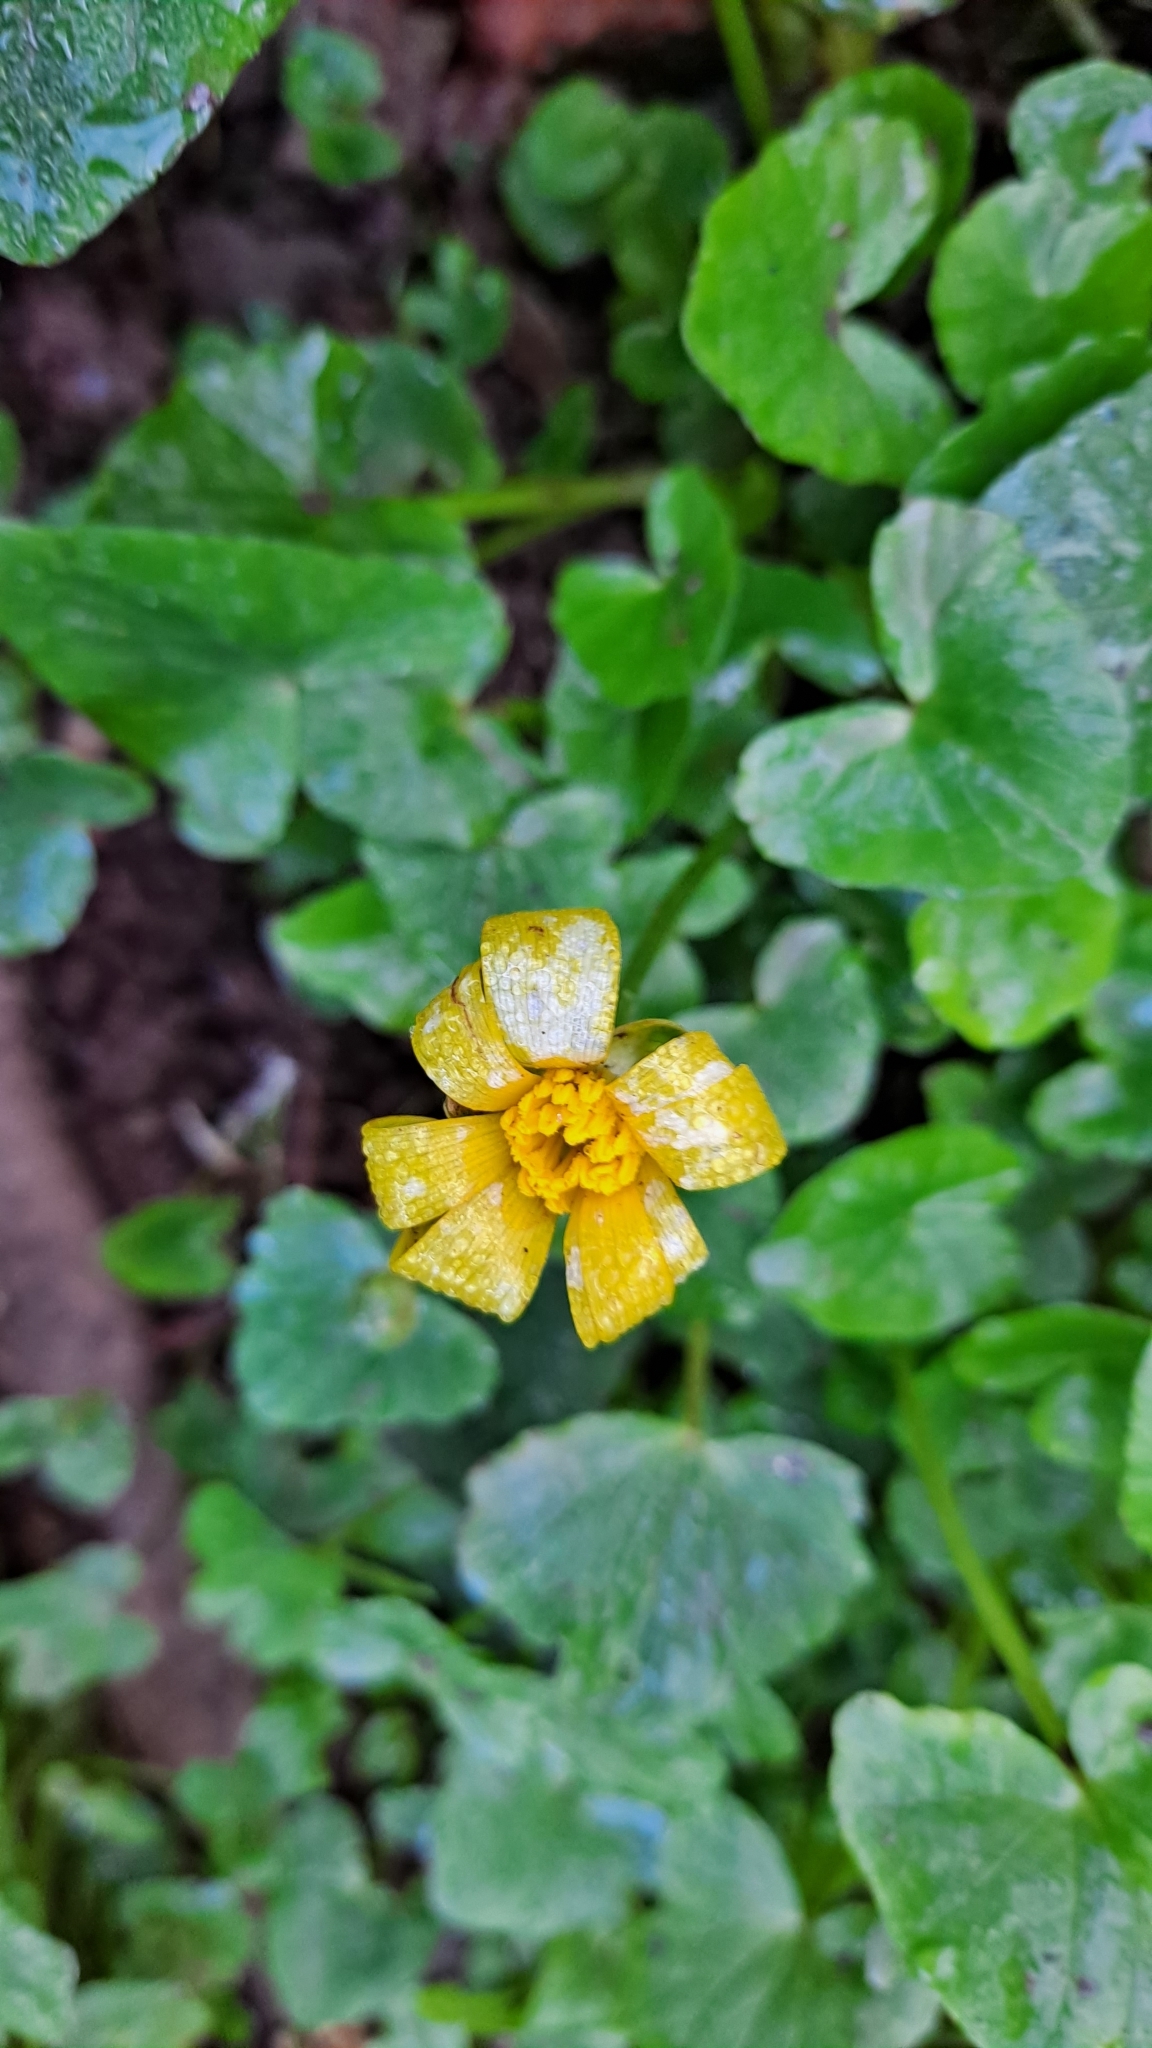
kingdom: Plantae
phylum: Tracheophyta
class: Magnoliopsida
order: Ranunculales
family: Ranunculaceae
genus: Ficaria
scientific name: Ficaria verna
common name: Lesser celandine
